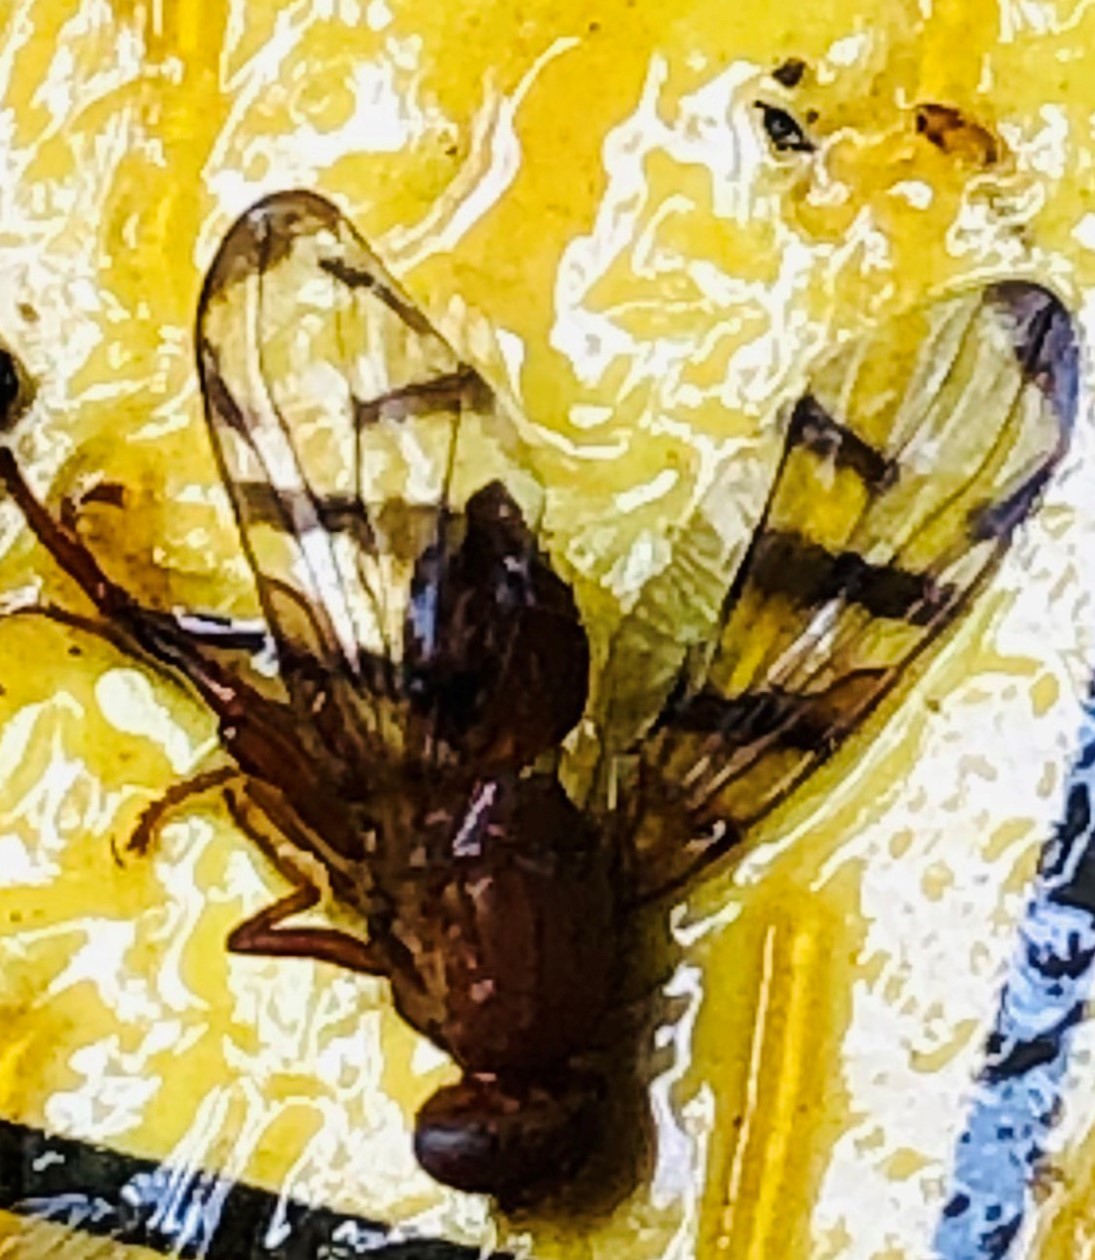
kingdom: Animalia
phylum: Arthropoda
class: Insecta
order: Diptera
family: Tephritidae
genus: Chetostoma
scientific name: Chetostoma californicum
